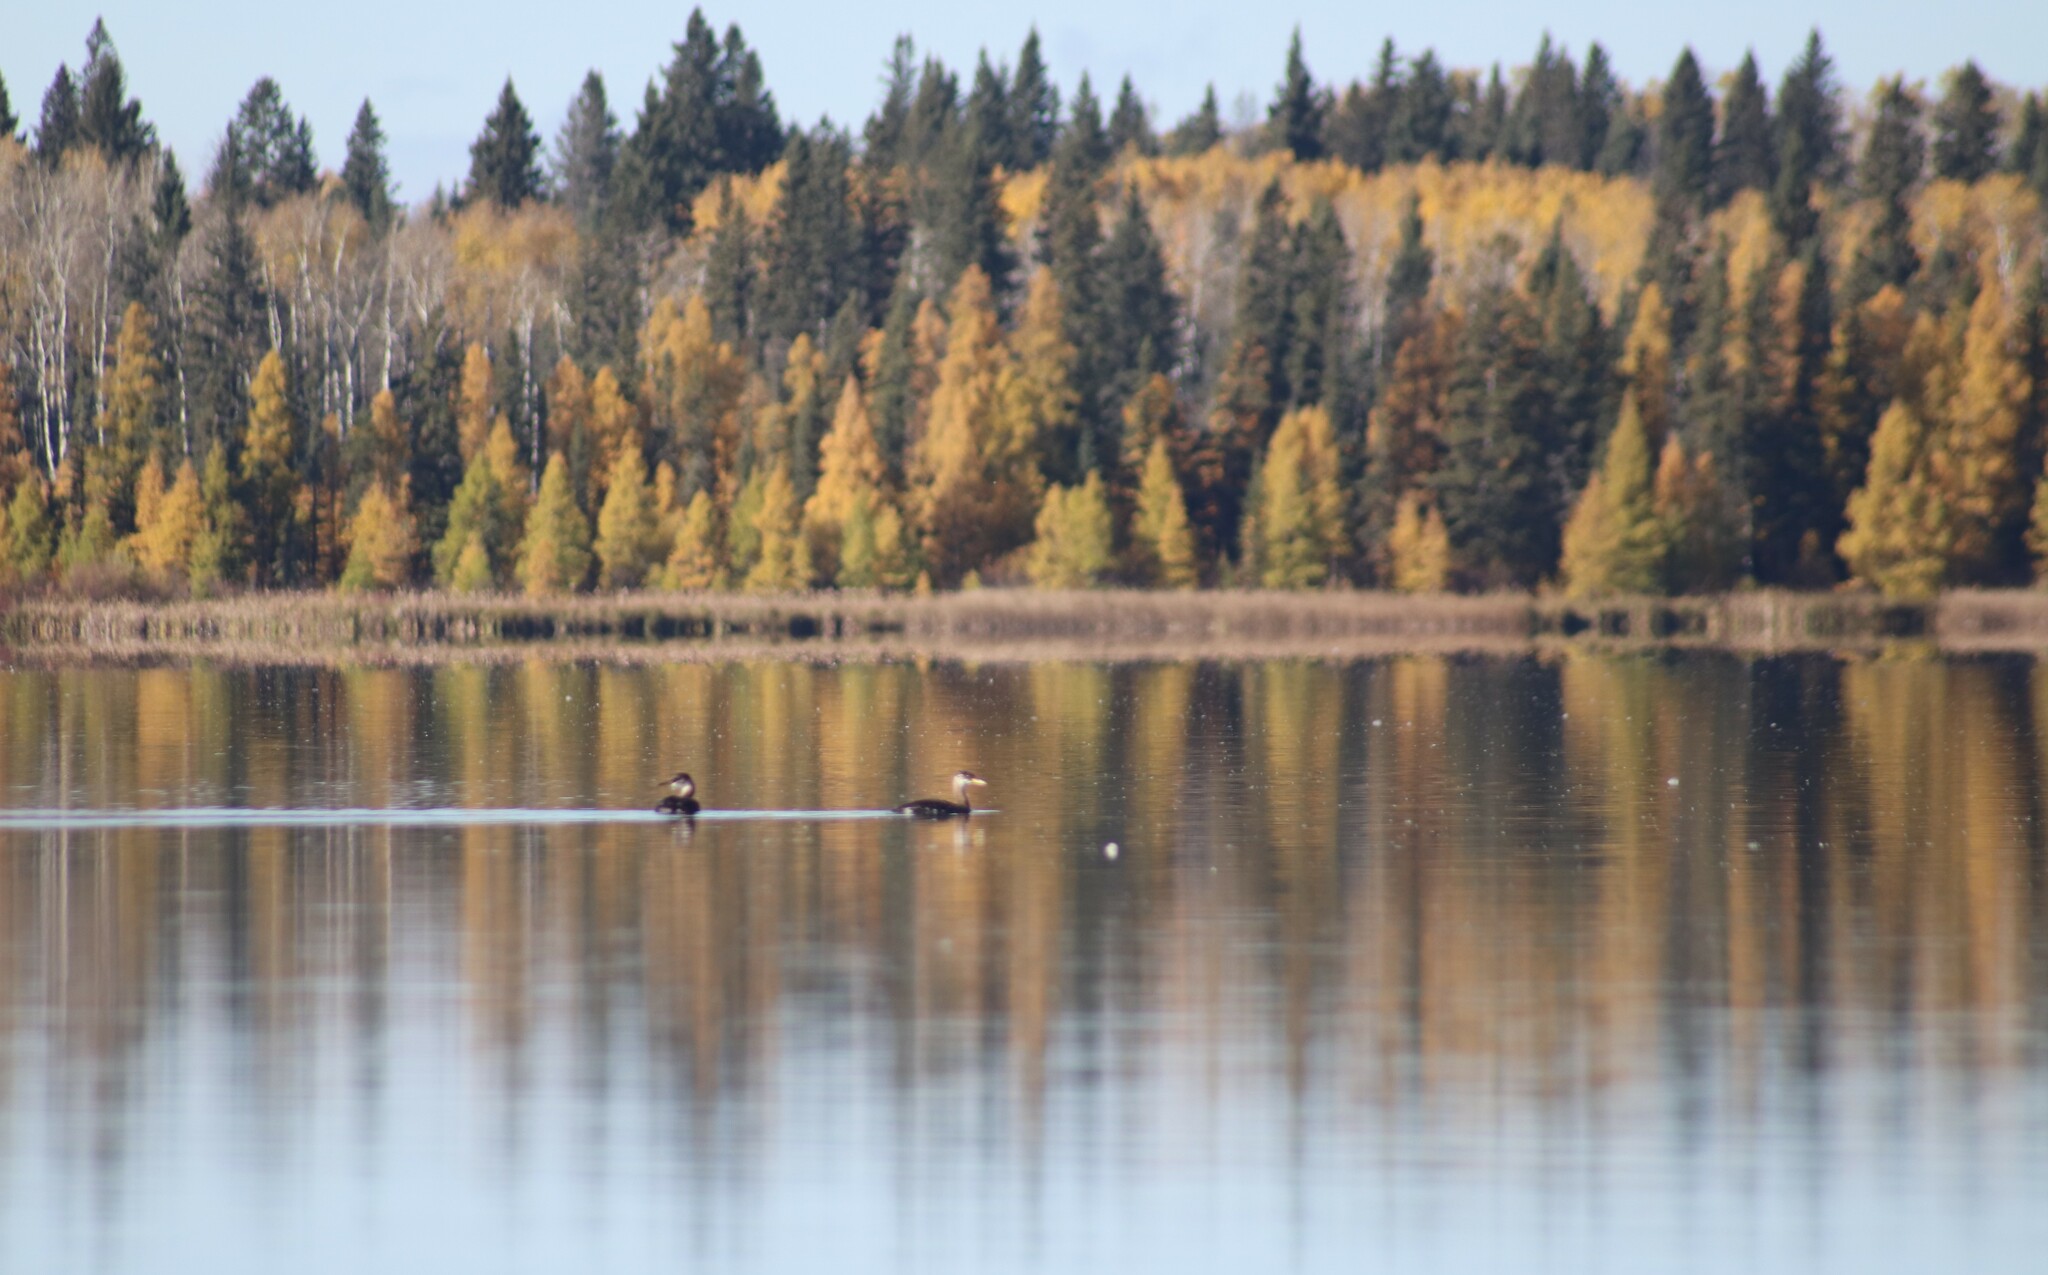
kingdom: Animalia
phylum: Chordata
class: Aves
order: Podicipediformes
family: Podicipedidae
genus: Podiceps
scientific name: Podiceps grisegena
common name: Red-necked grebe
